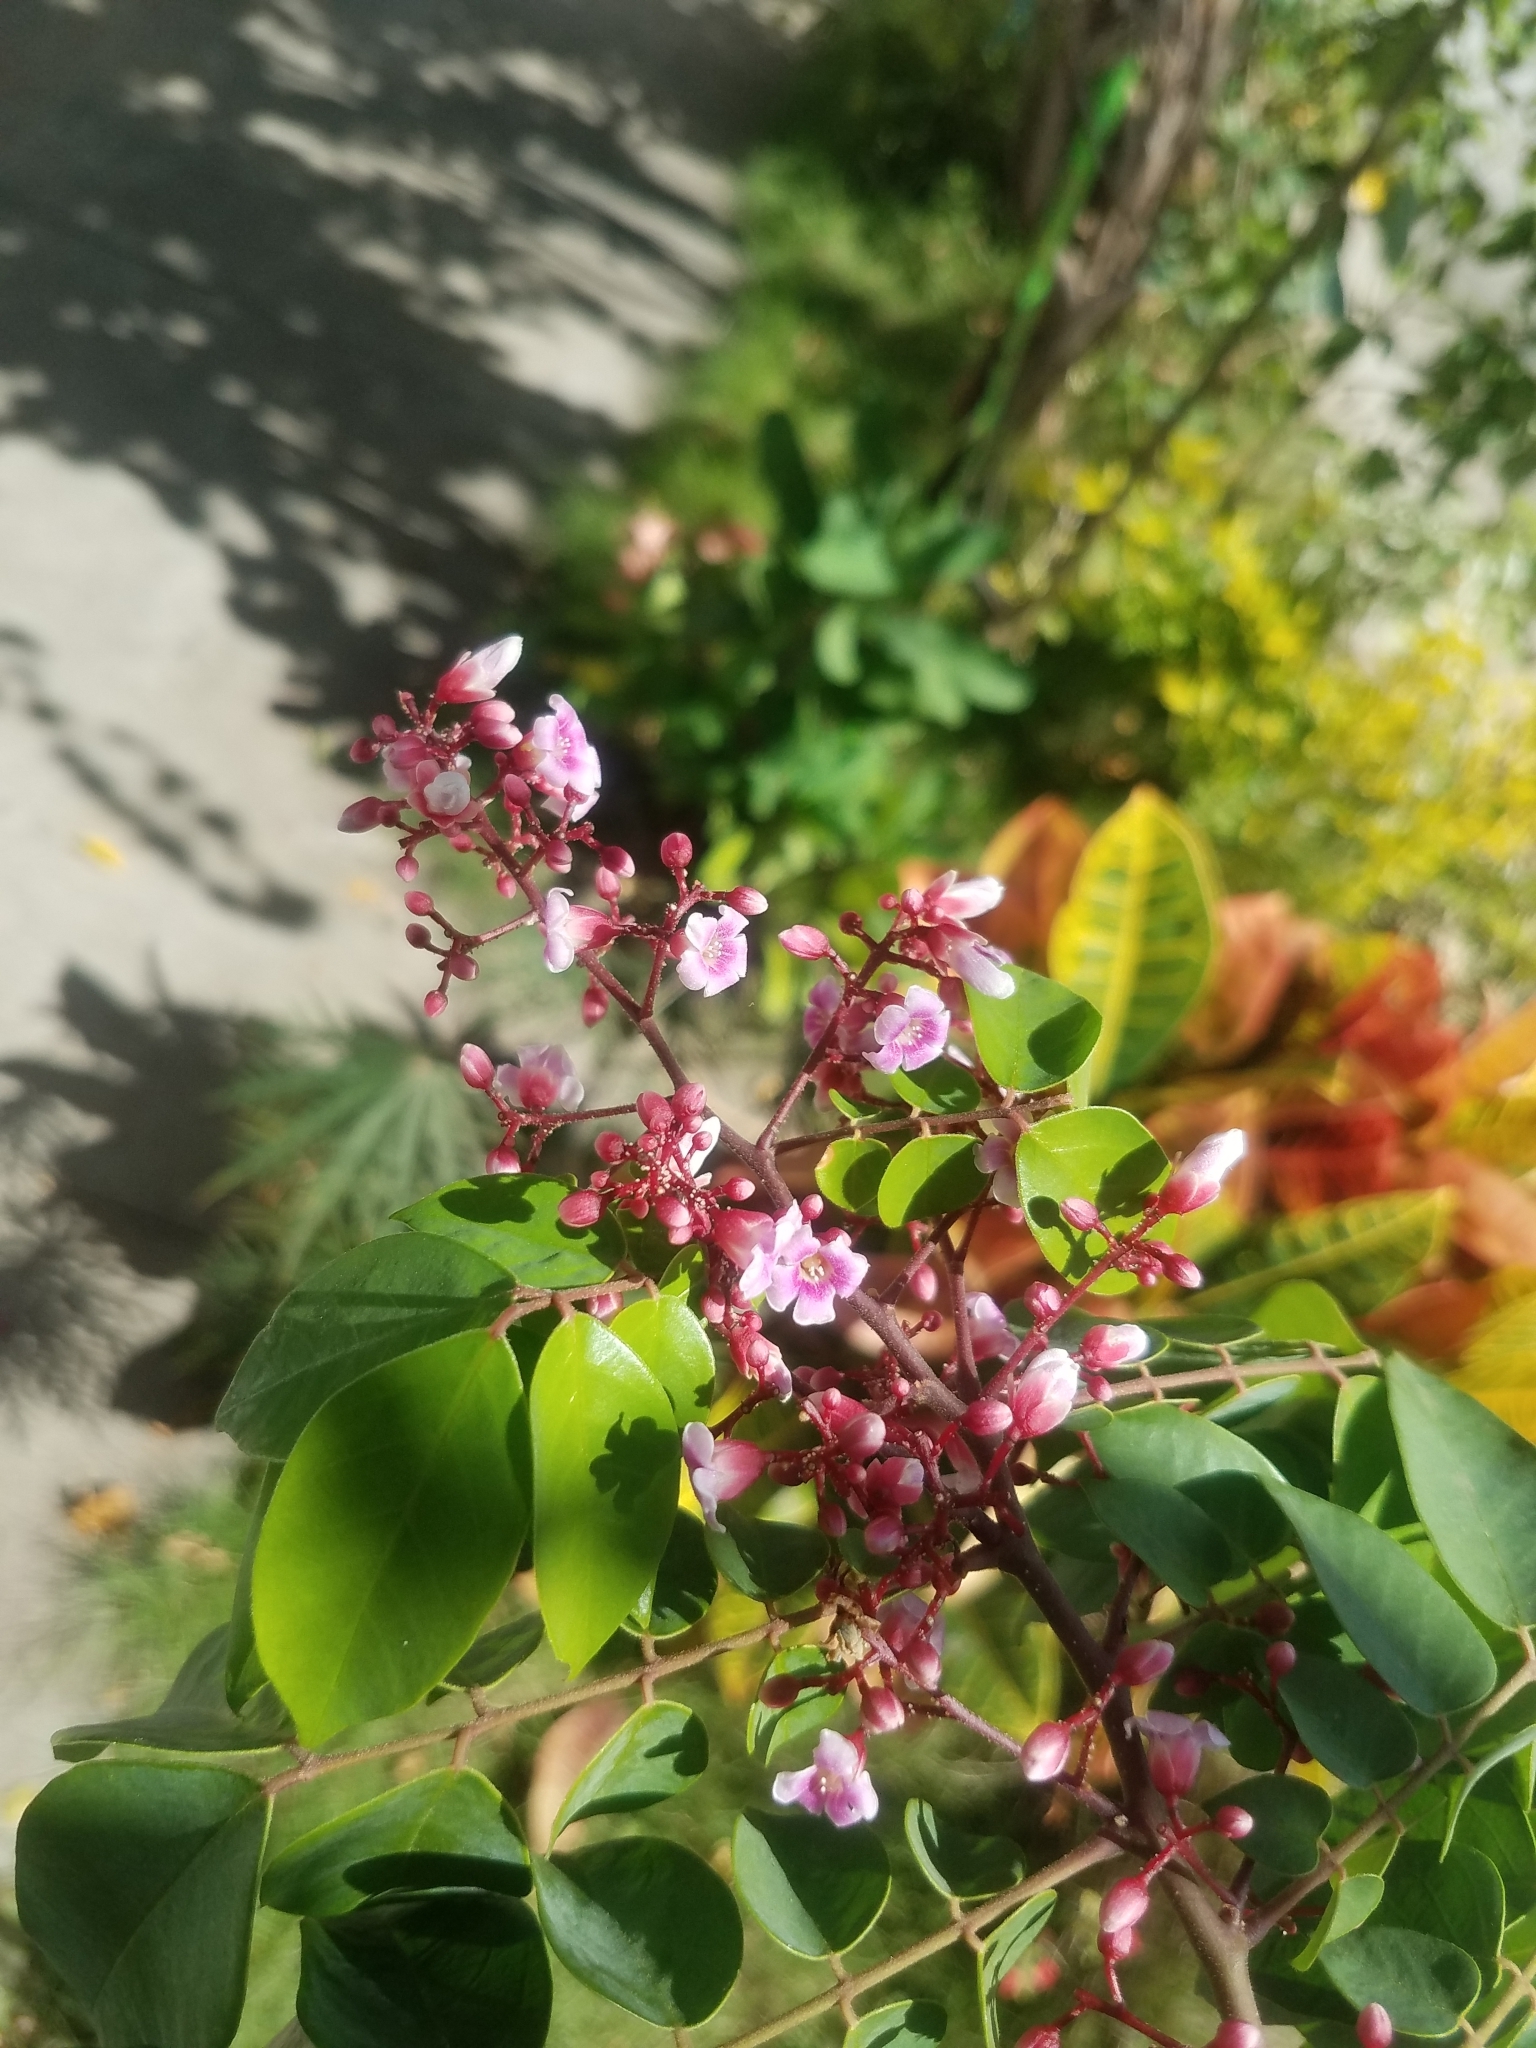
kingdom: Plantae
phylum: Tracheophyta
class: Magnoliopsida
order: Oxalidales
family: Oxalidaceae
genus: Averrhoa
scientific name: Averrhoa carambola
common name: Blimbing
